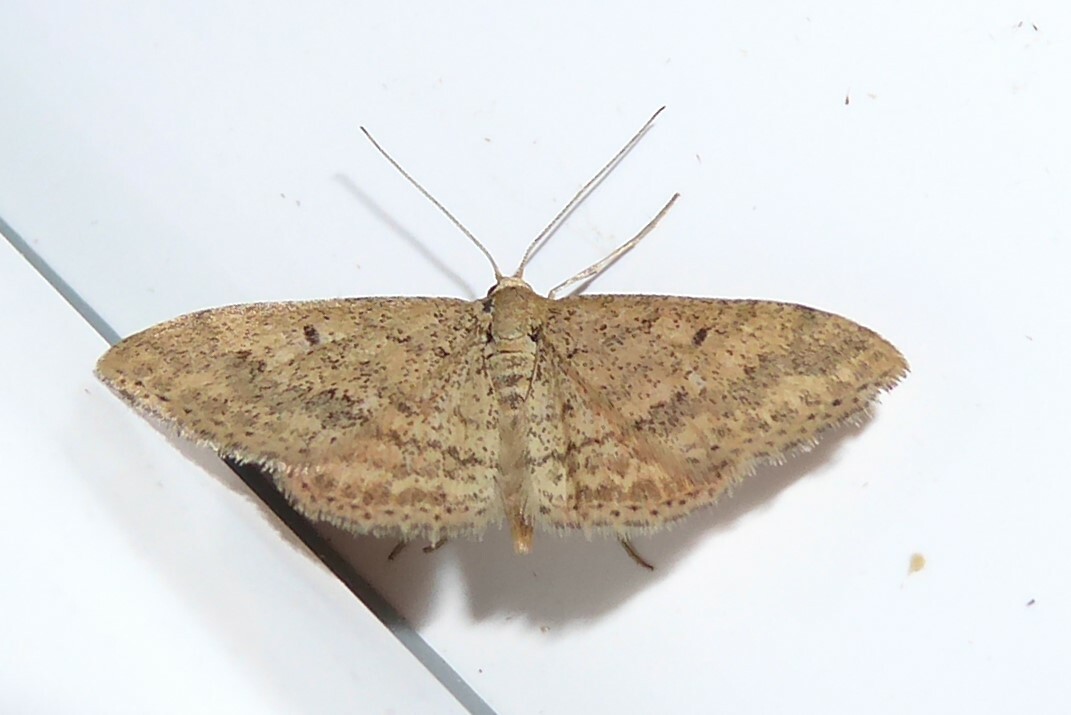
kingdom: Animalia
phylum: Arthropoda
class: Insecta
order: Lepidoptera
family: Geometridae
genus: Scopula
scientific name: Scopula rubraria
